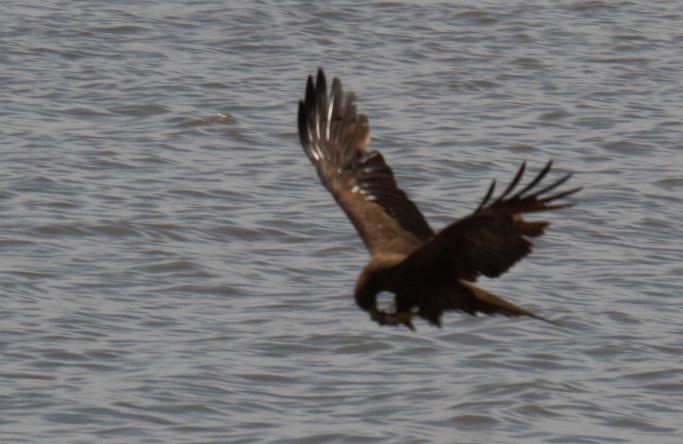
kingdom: Animalia
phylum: Chordata
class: Aves
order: Accipitriformes
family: Accipitridae
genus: Milvus
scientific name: Milvus migrans
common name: Black kite
